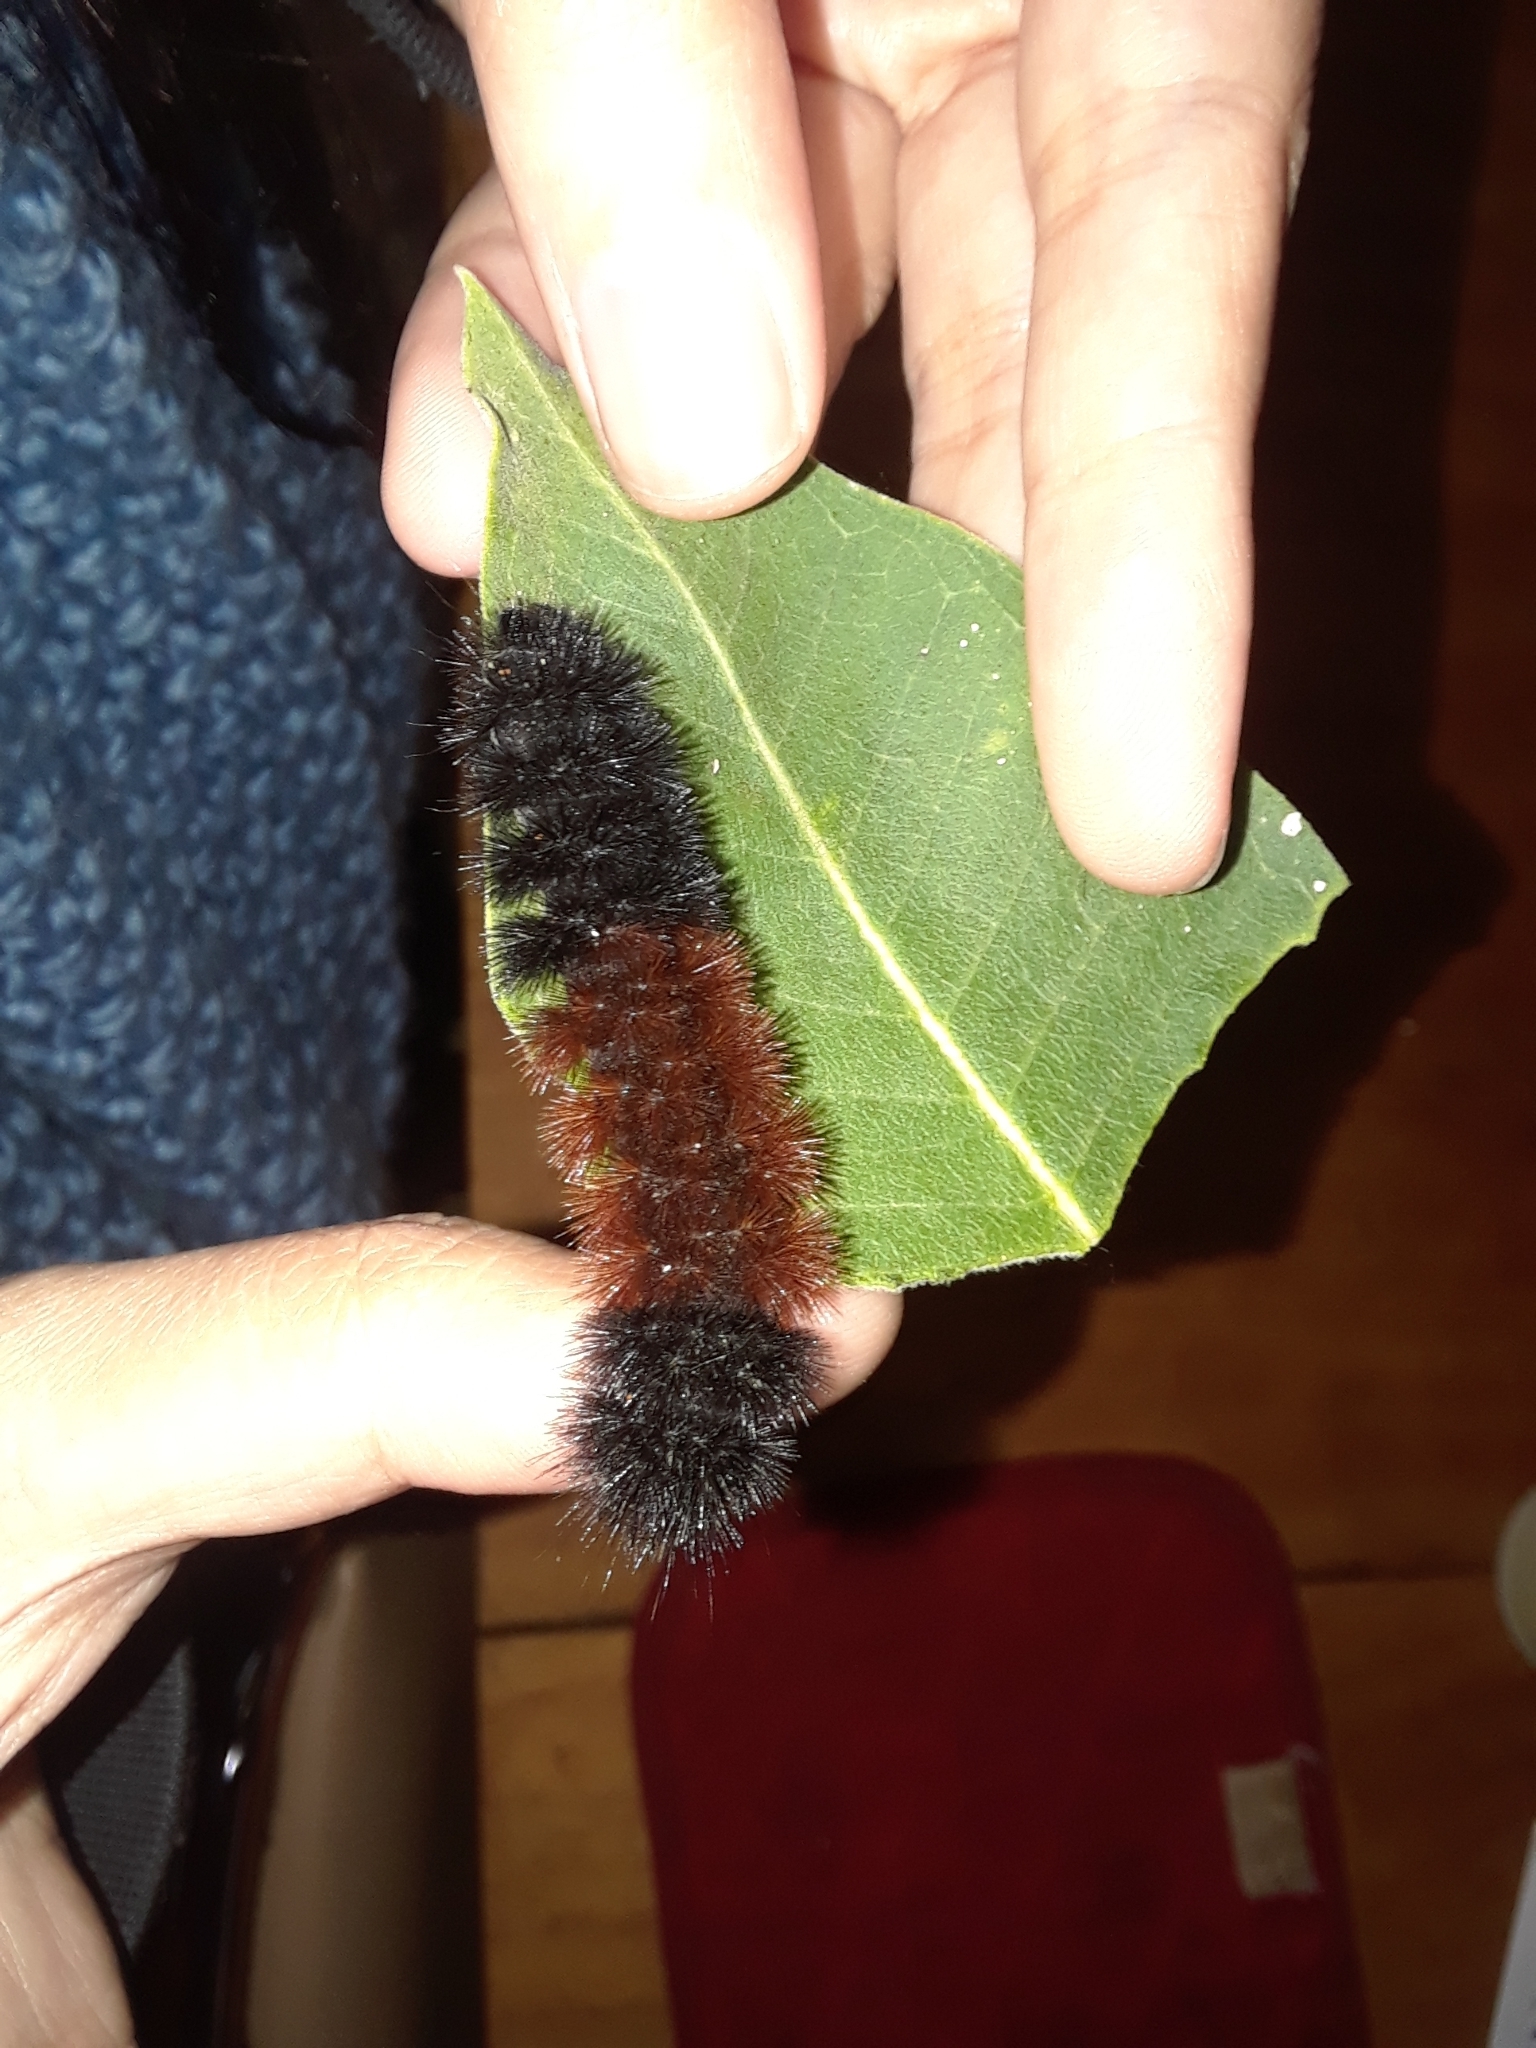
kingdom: Animalia
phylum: Arthropoda
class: Insecta
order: Lepidoptera
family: Erebidae
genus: Pyrrharctia
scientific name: Pyrrharctia isabella
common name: Isabella tiger moth
